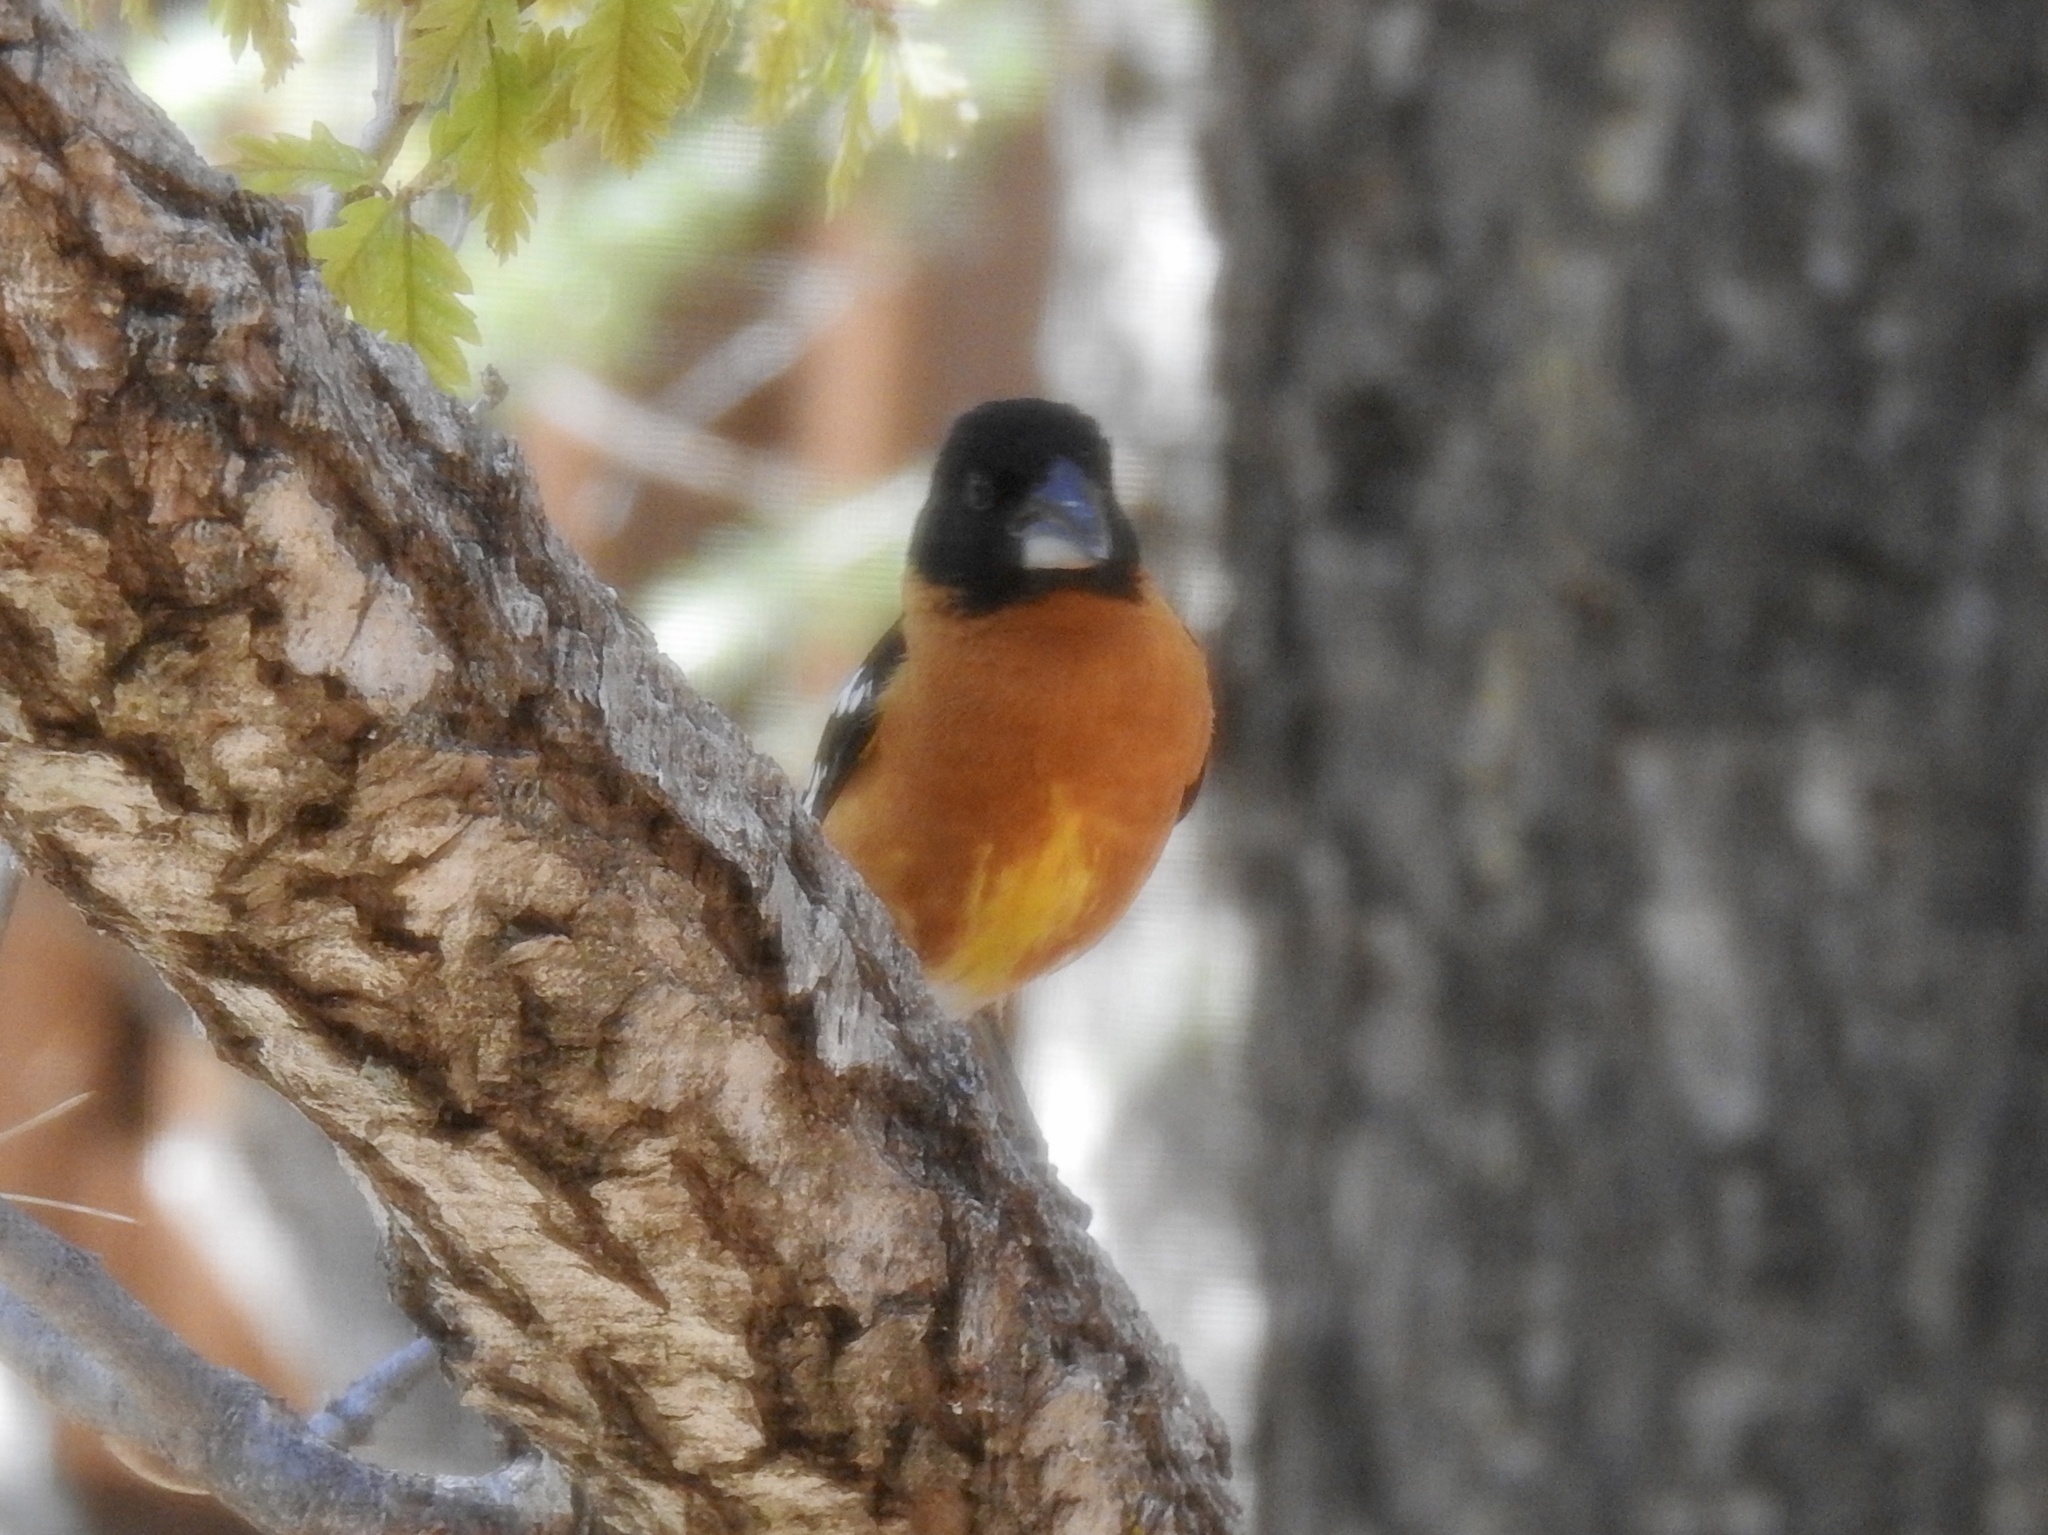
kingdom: Animalia
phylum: Chordata
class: Aves
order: Passeriformes
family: Cardinalidae
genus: Pheucticus
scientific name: Pheucticus melanocephalus
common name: Black-headed grosbeak
